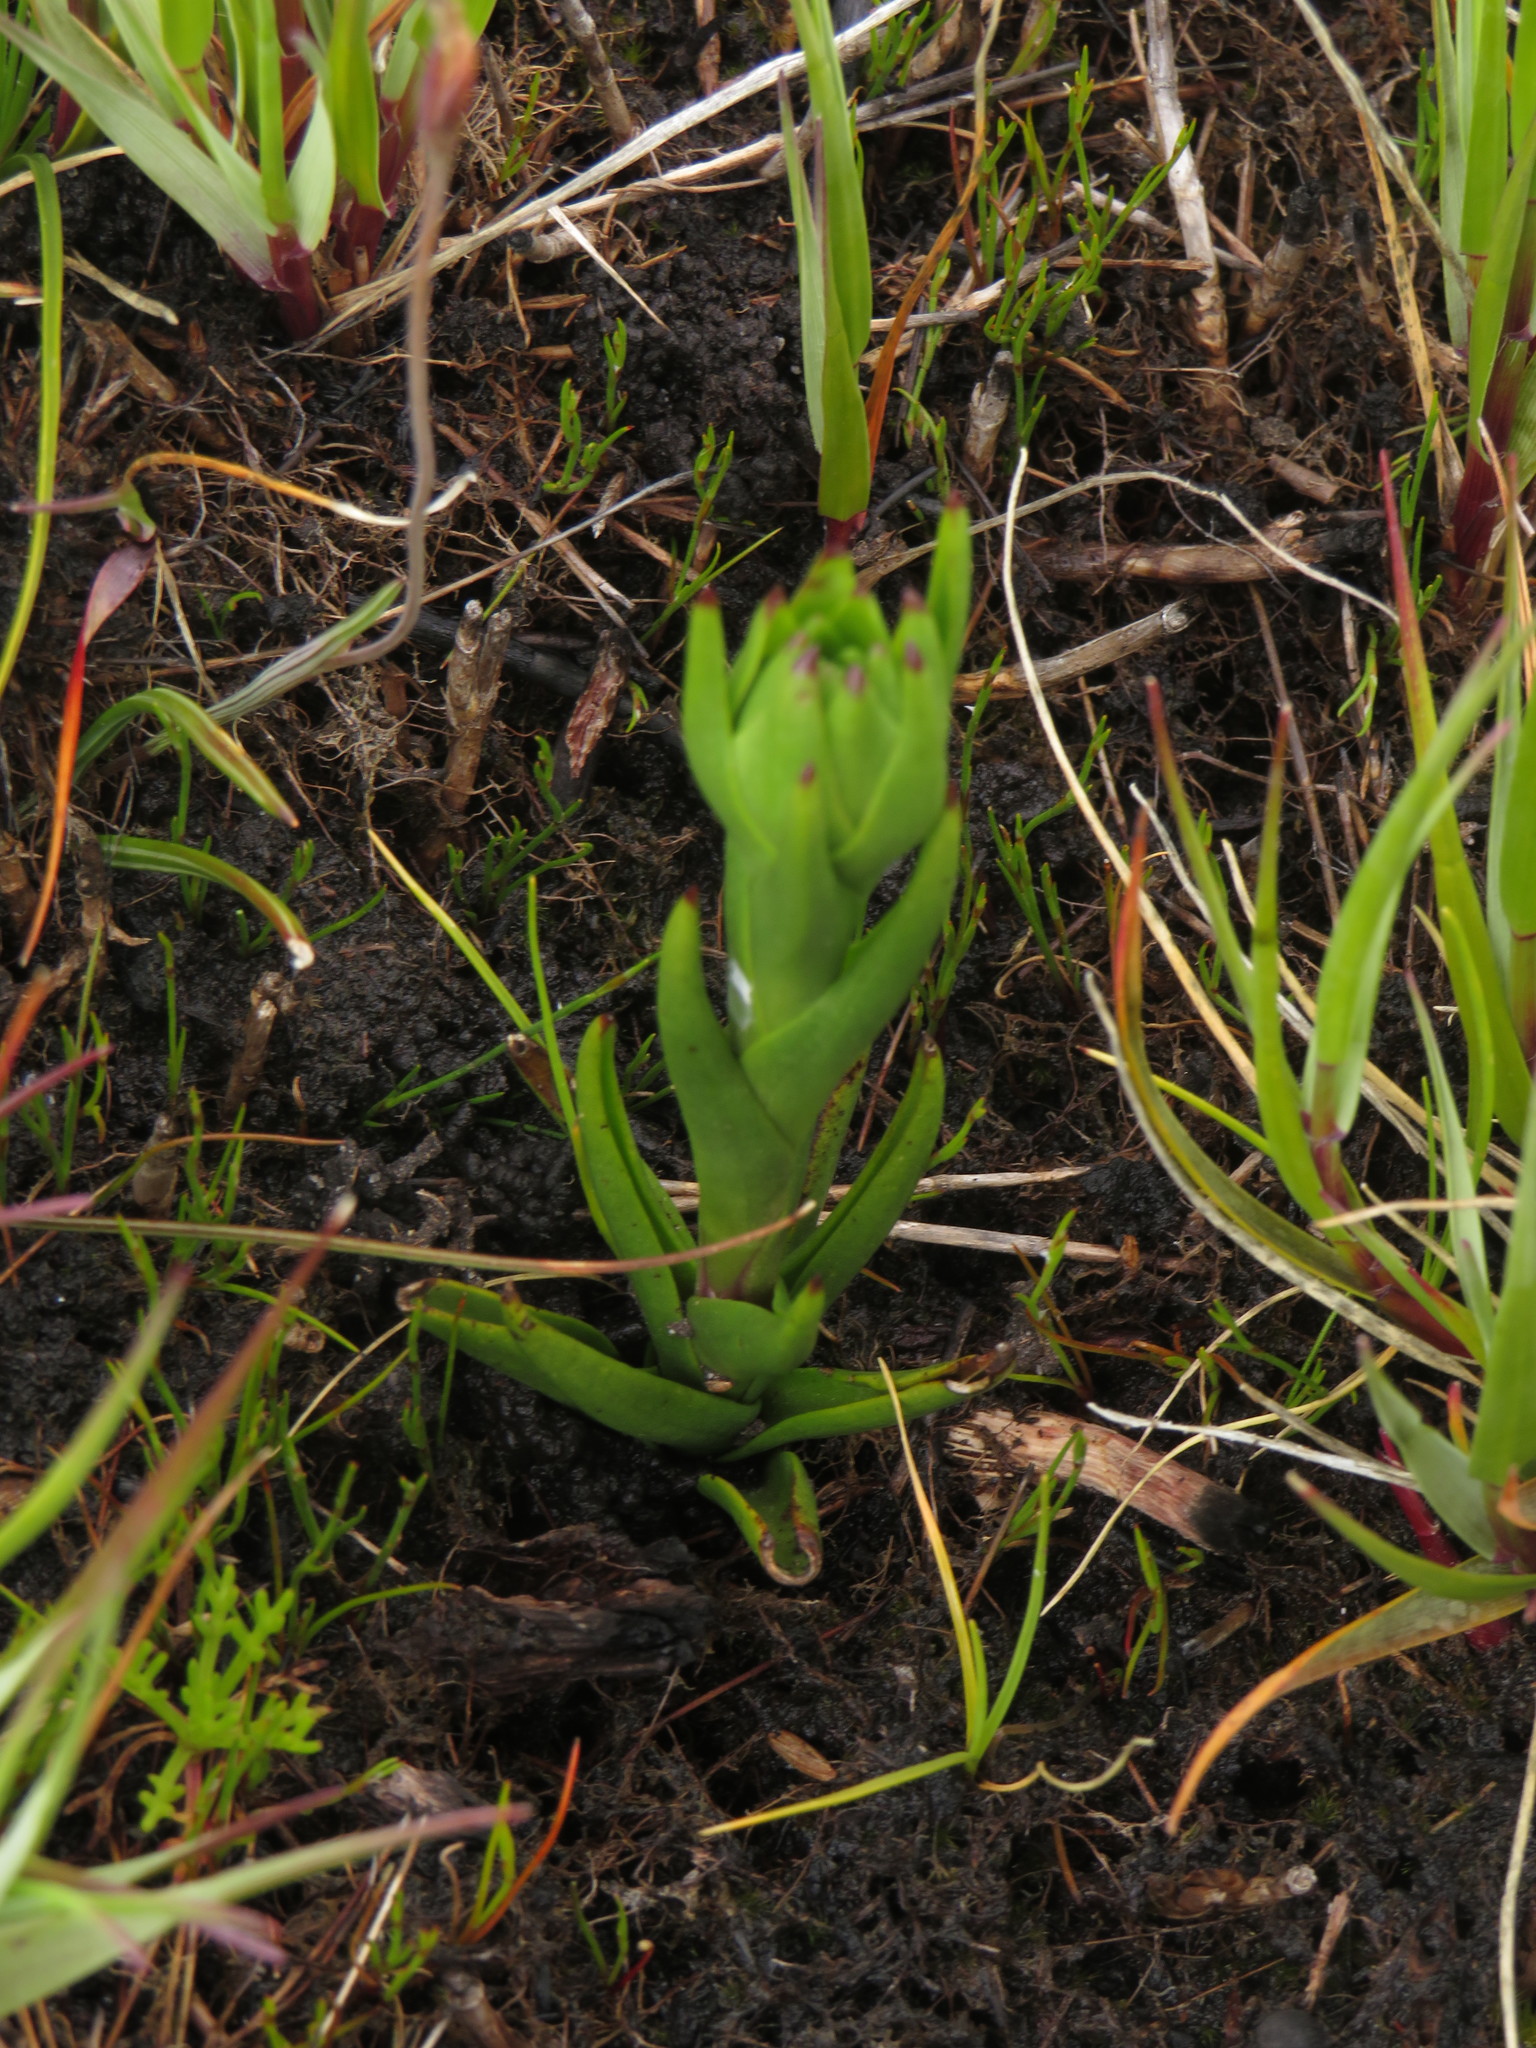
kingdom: Plantae
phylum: Tracheophyta
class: Liliopsida
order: Asparagales
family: Orchidaceae
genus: Disa
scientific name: Disa bivalvata
